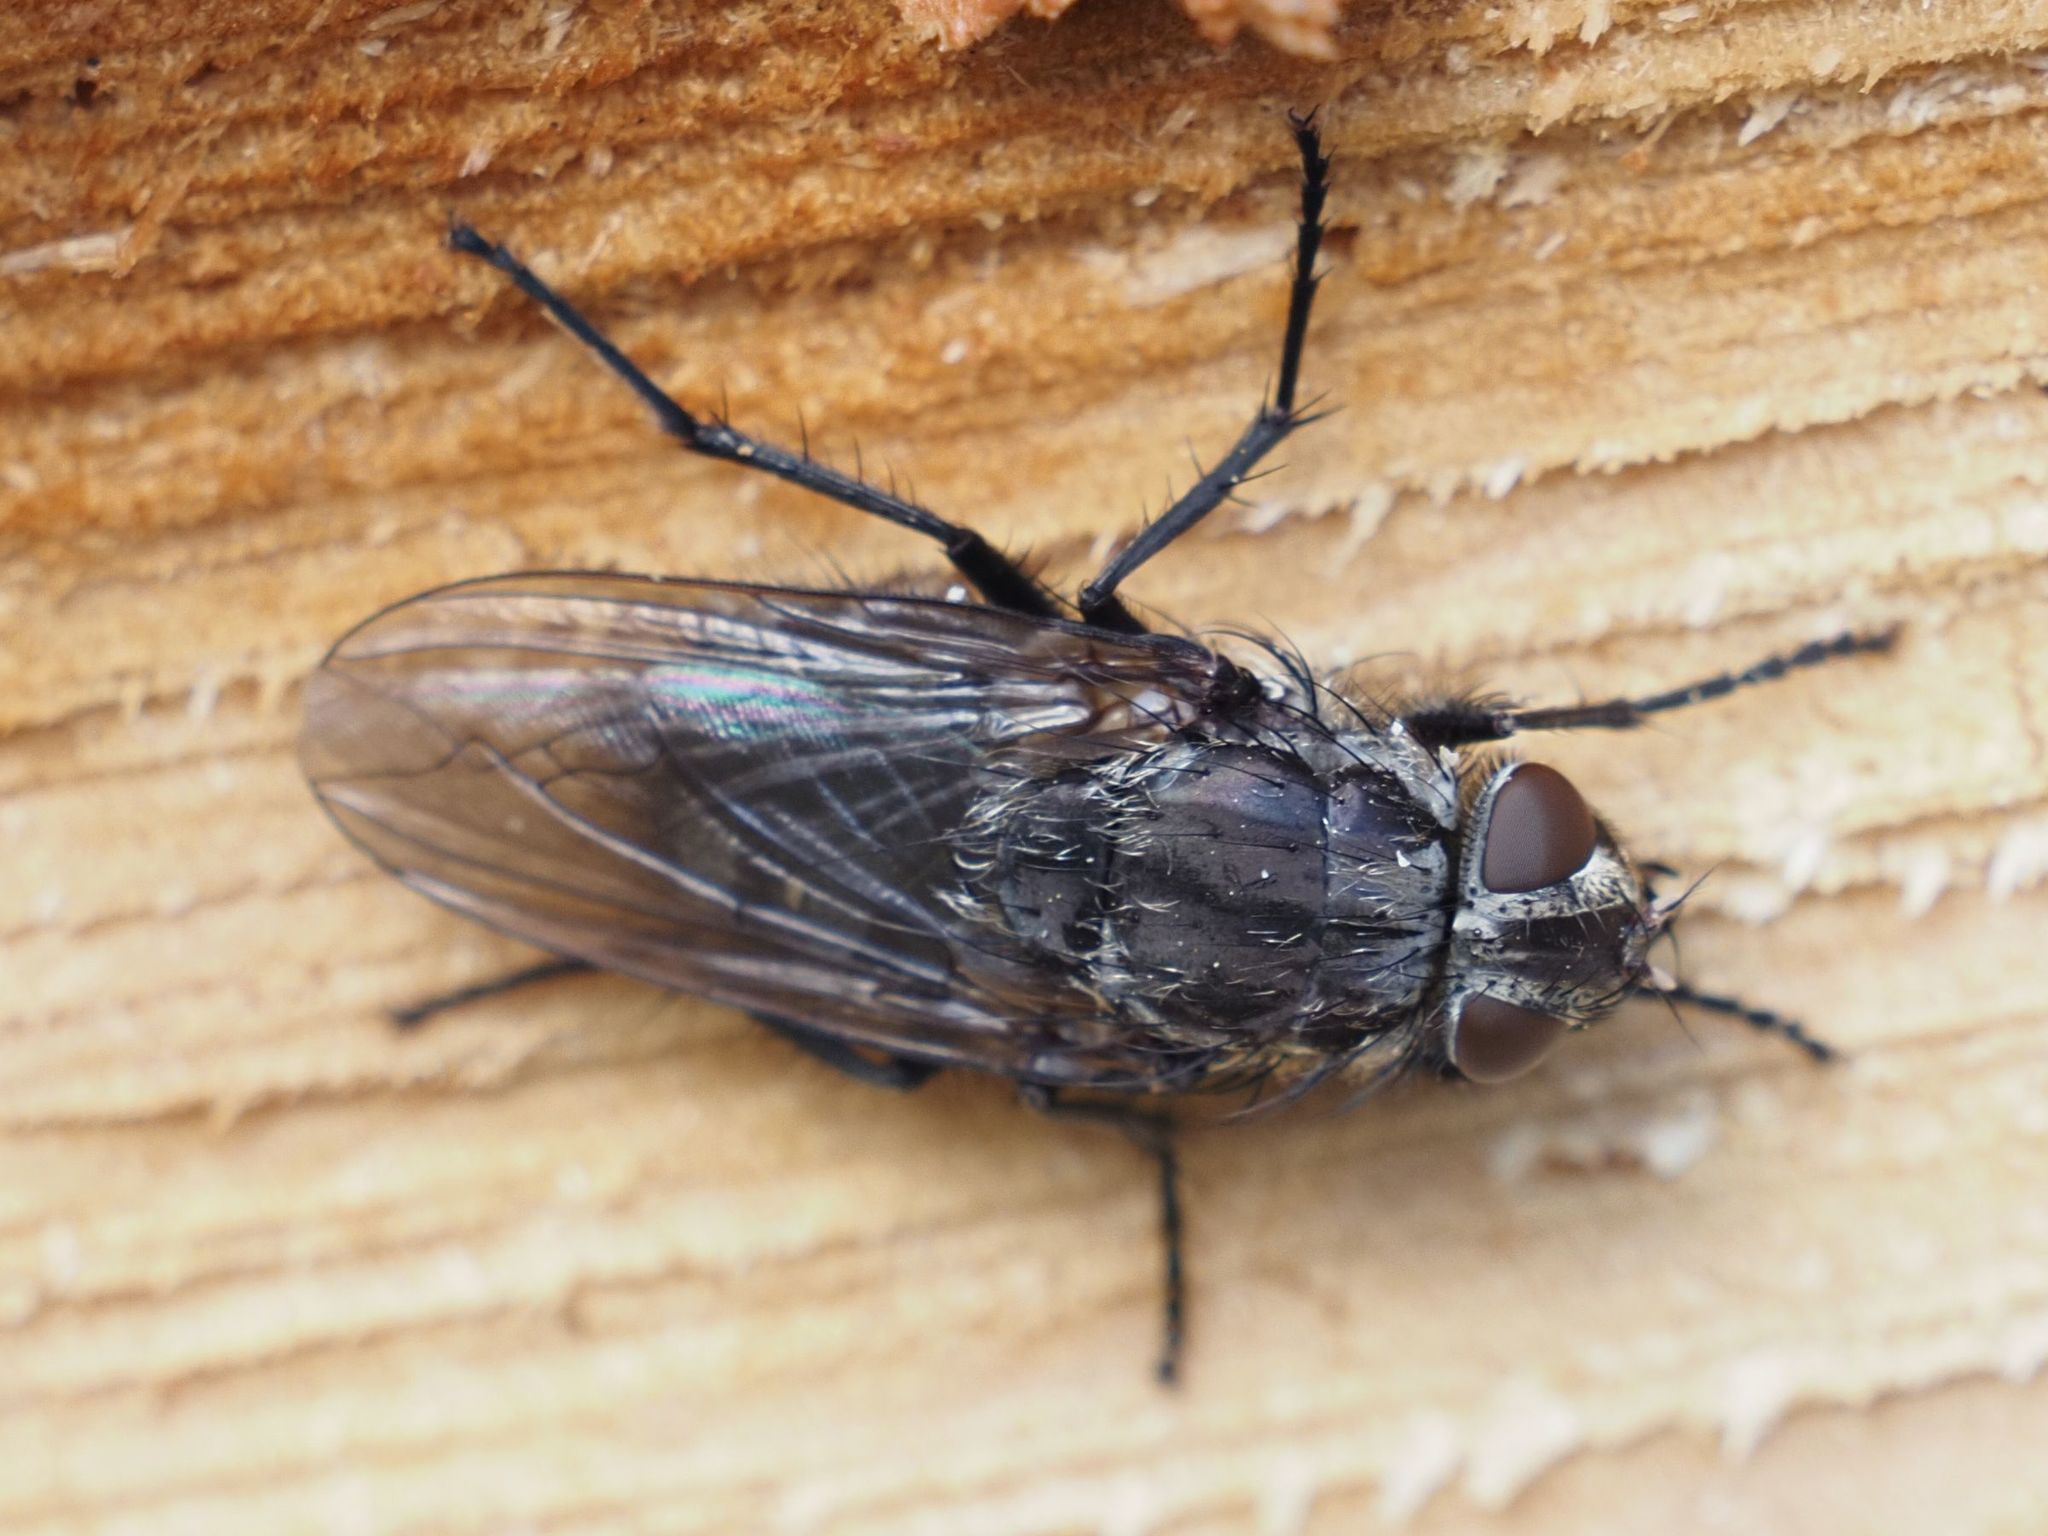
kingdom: Animalia
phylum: Arthropoda
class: Insecta
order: Diptera
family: Polleniidae
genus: Pollenia
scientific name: Pollenia vagabunda
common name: Vagabund cluster fly
